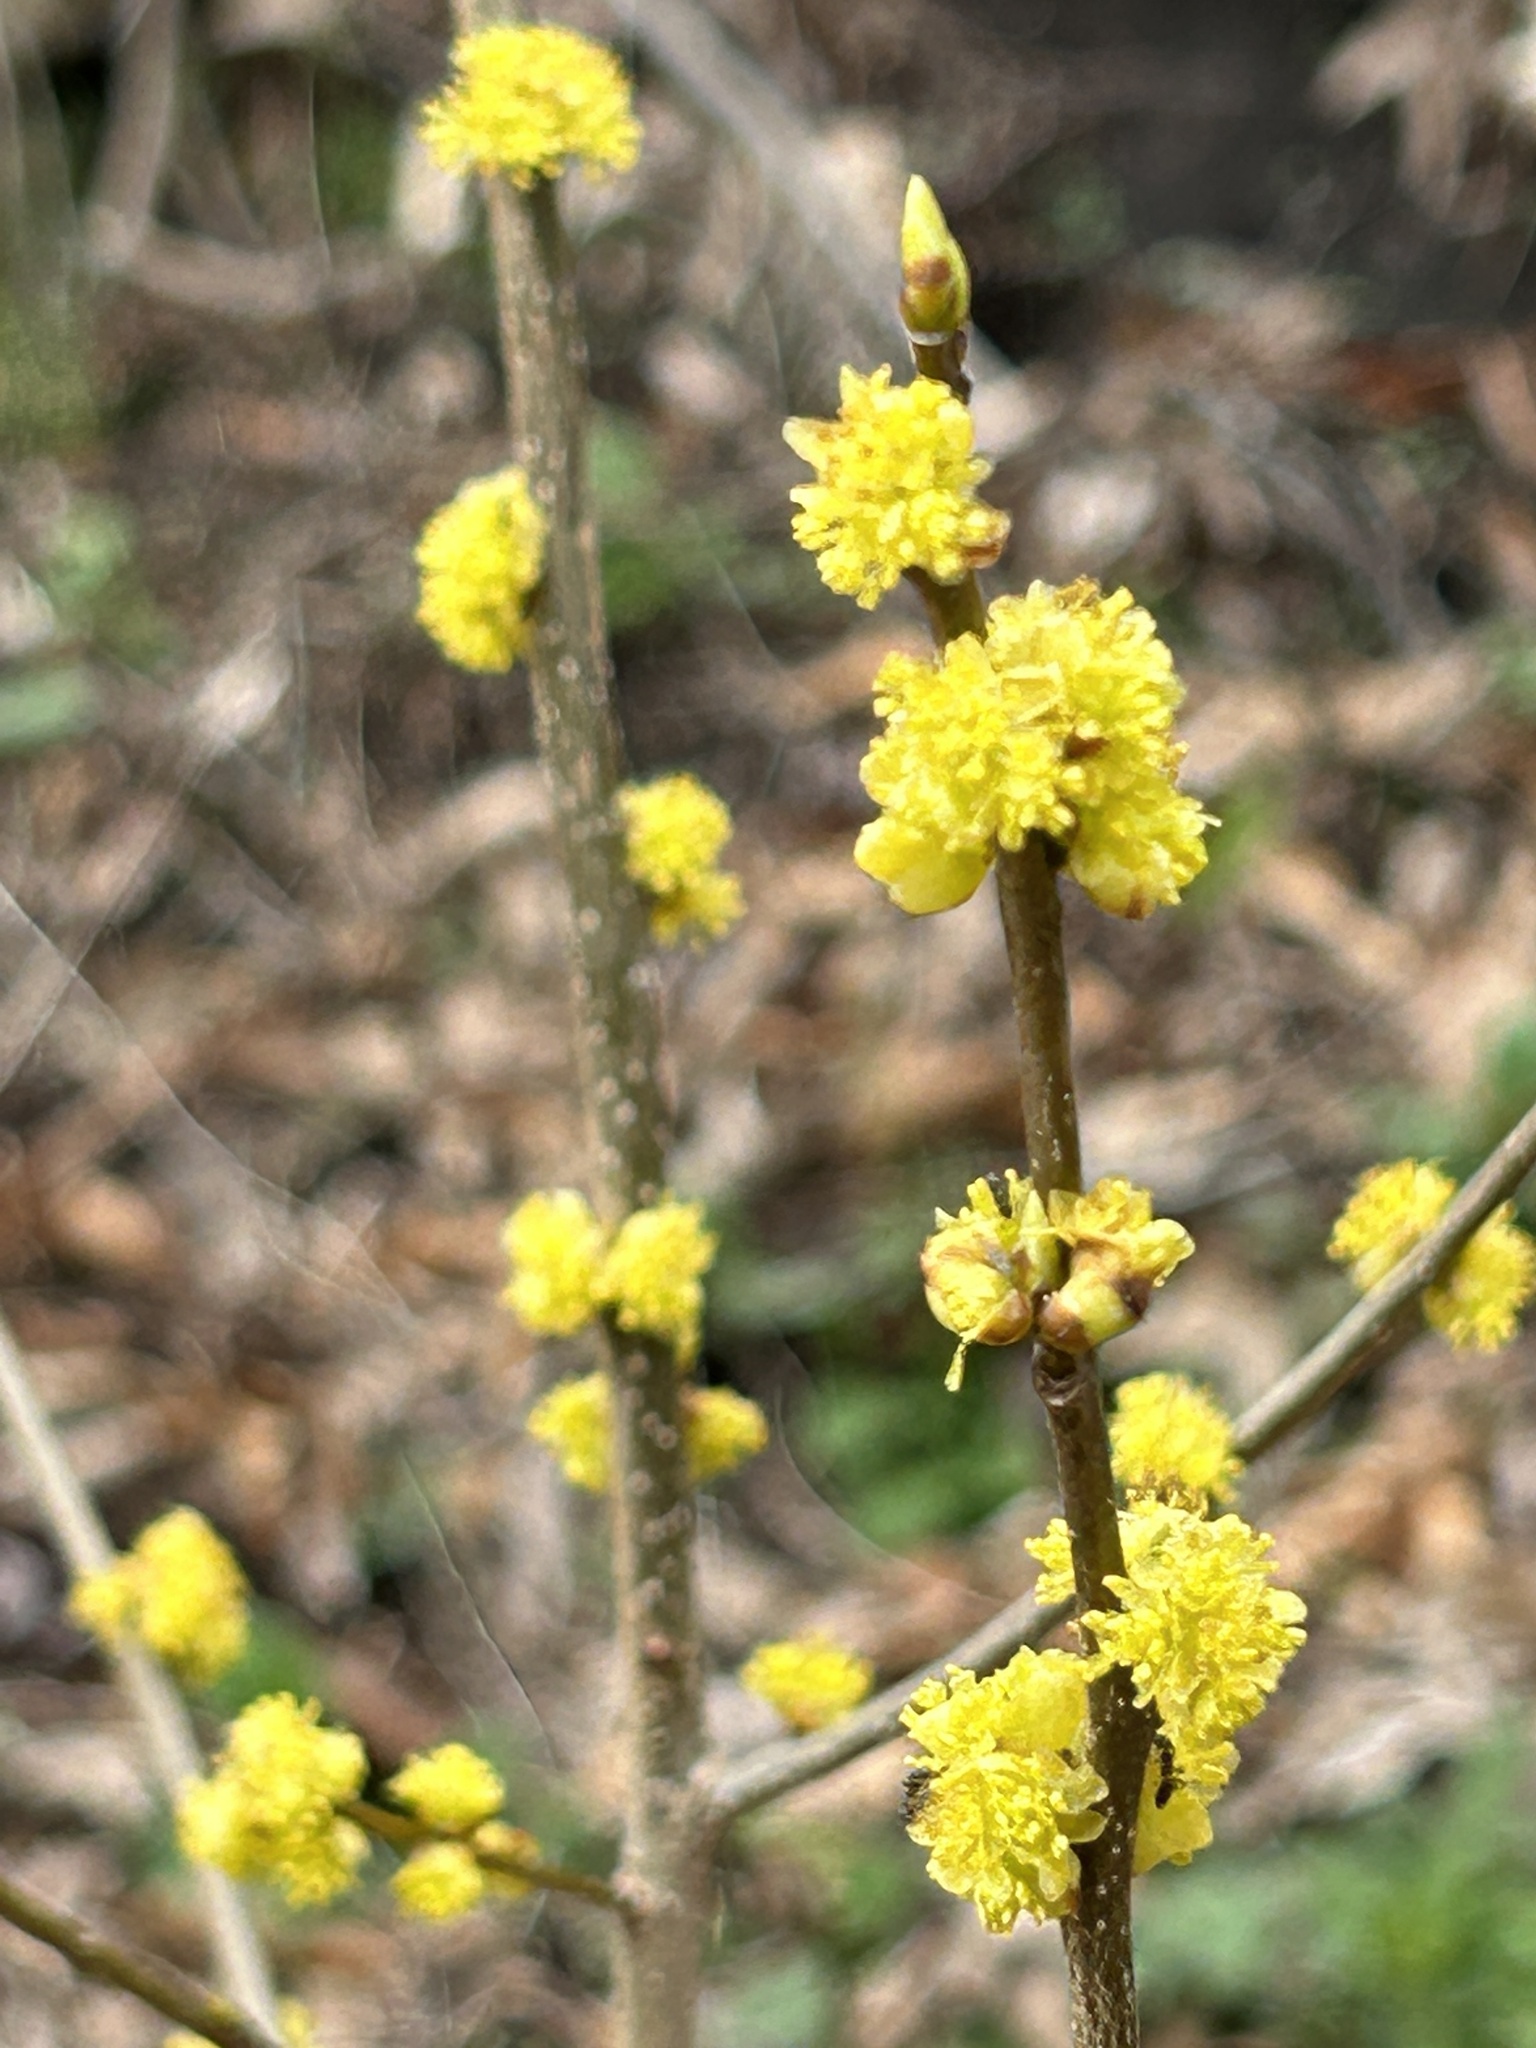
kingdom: Plantae
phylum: Tracheophyta
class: Magnoliopsida
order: Laurales
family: Lauraceae
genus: Lindera
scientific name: Lindera benzoin
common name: Spicebush
